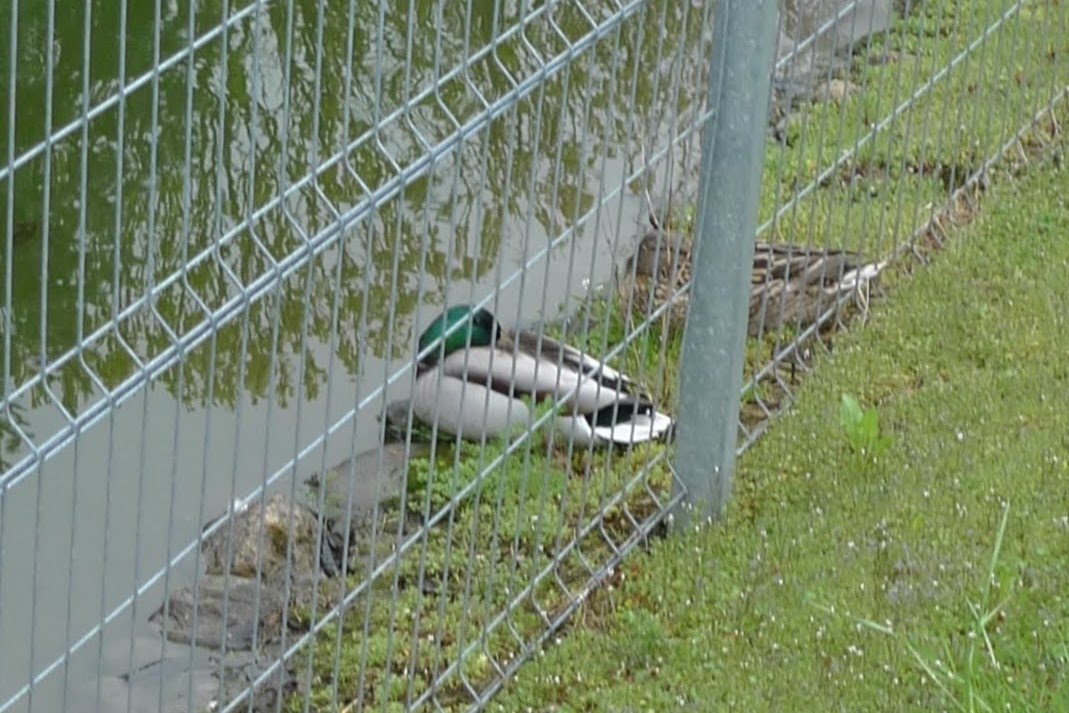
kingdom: Animalia
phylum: Chordata
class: Aves
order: Anseriformes
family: Anatidae
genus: Anas
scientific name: Anas platyrhynchos
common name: Mallard
